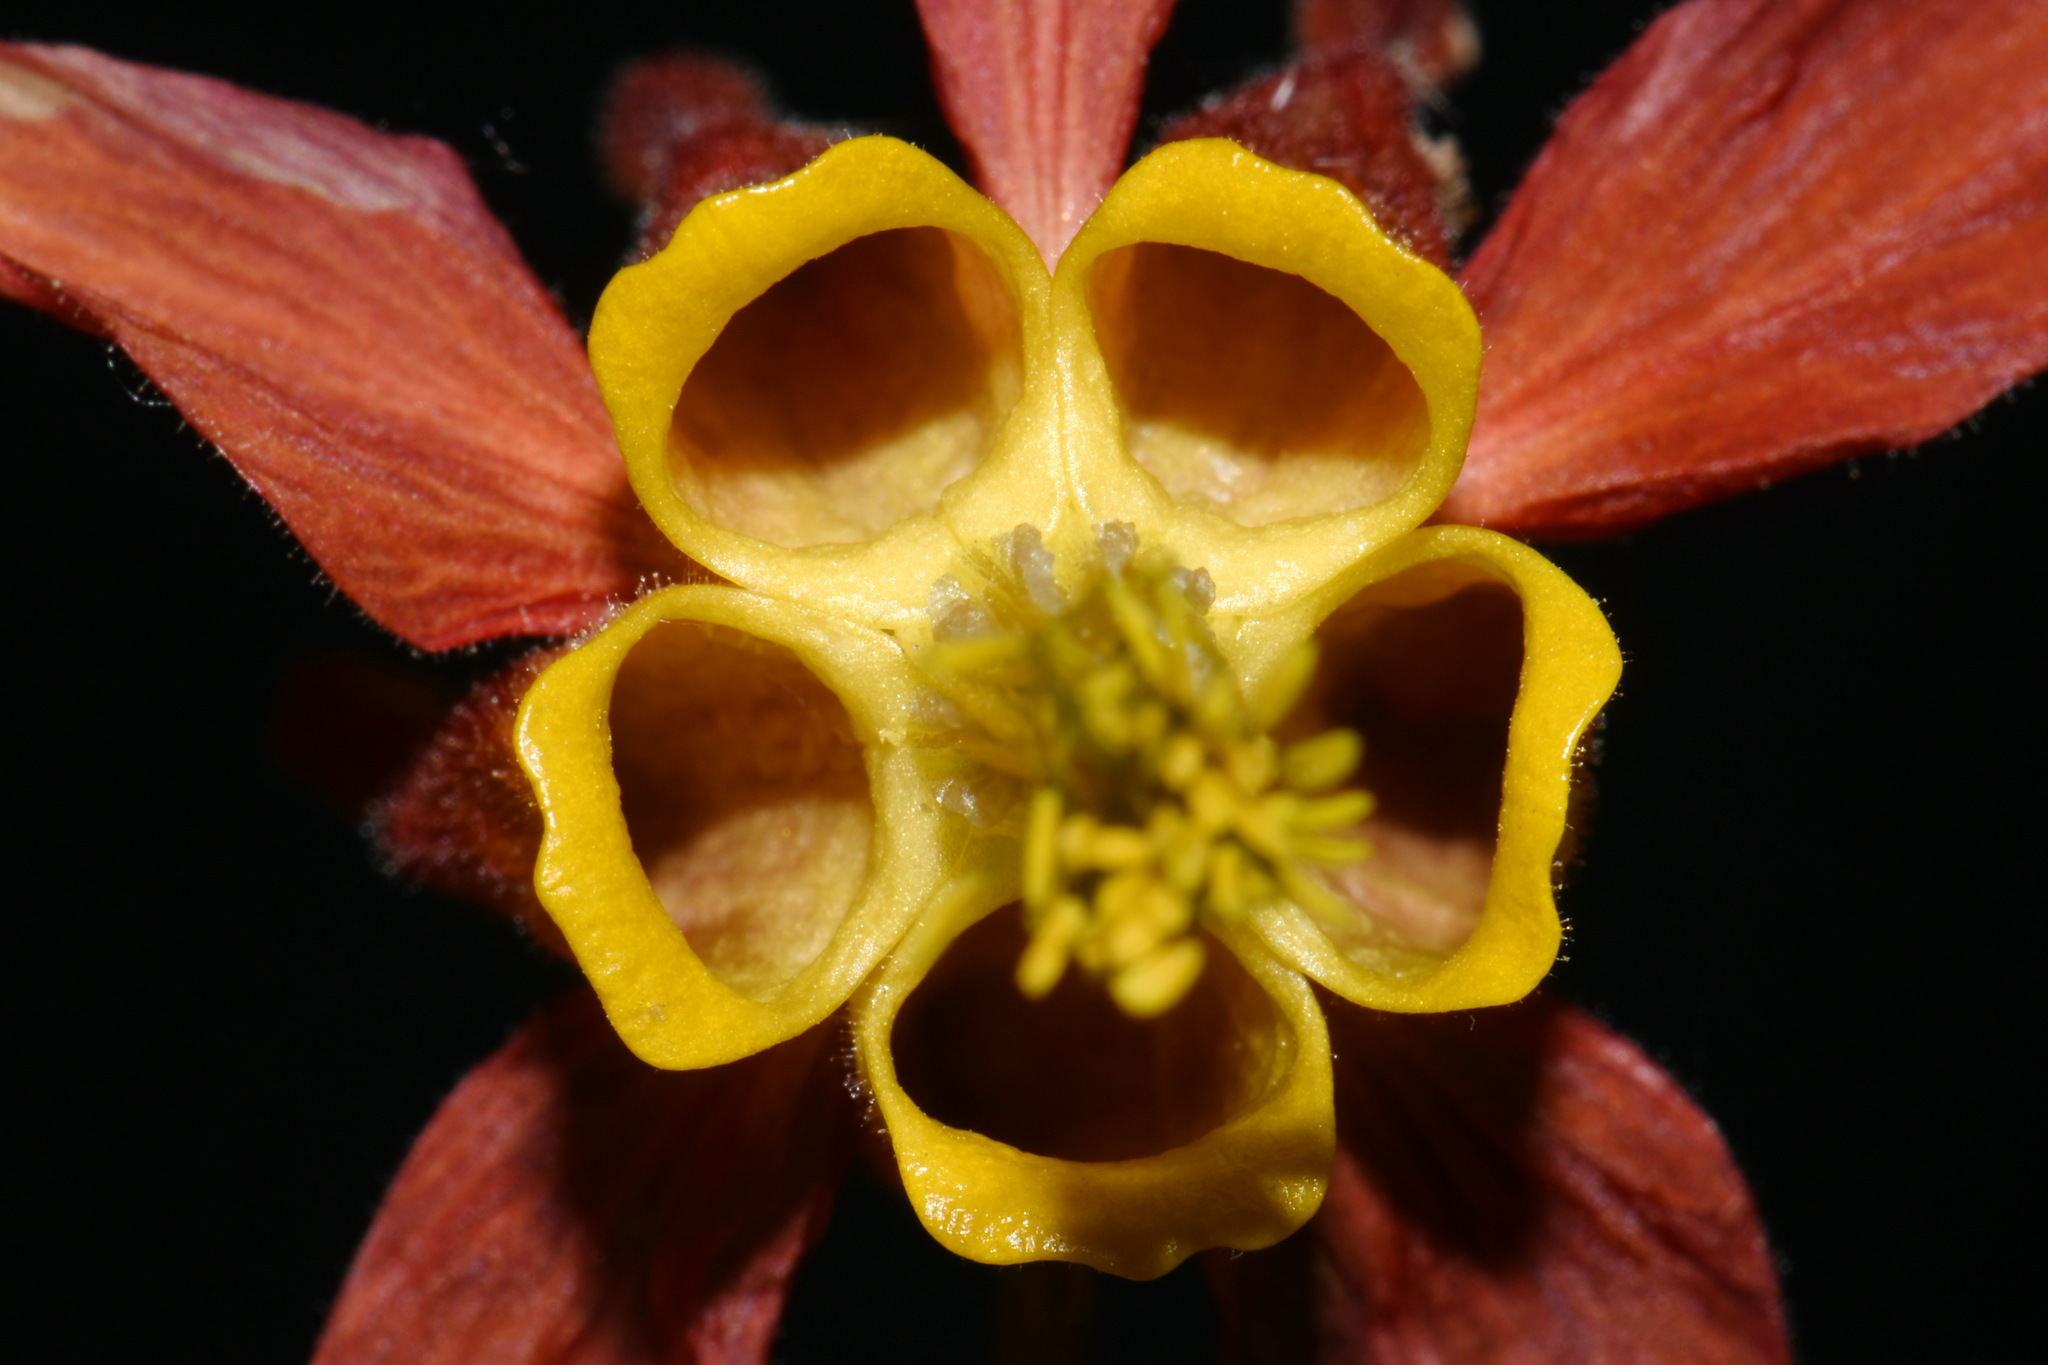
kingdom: Plantae
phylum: Tracheophyta
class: Magnoliopsida
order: Ranunculales
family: Ranunculaceae
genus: Aquilegia
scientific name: Aquilegia formosa
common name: Sitka columbine
